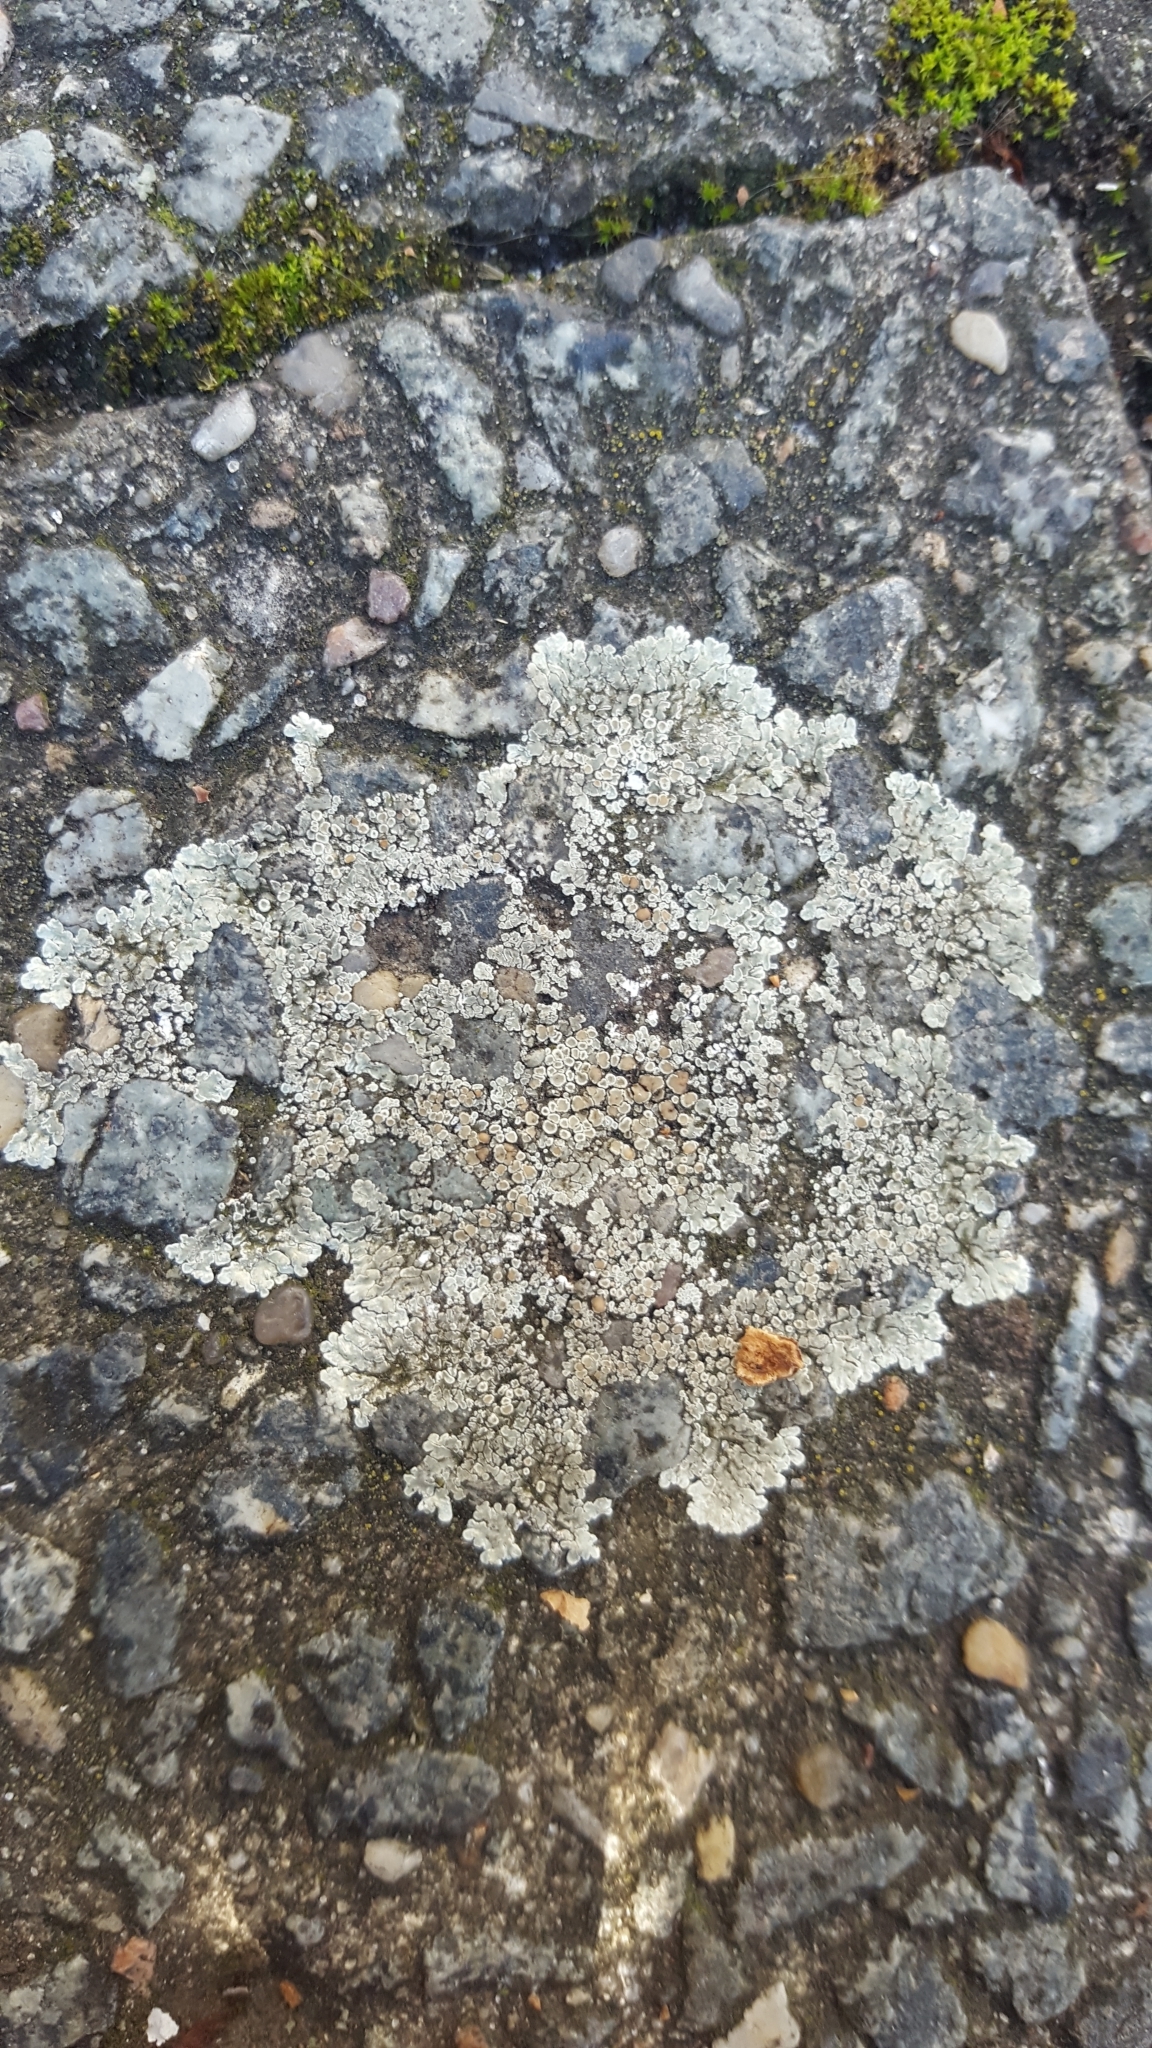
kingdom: Fungi
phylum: Ascomycota
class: Lecanoromycetes
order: Lecanorales
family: Lecanoraceae
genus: Protoparmeliopsis
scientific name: Protoparmeliopsis muralis
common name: Stonewall rim lichen
